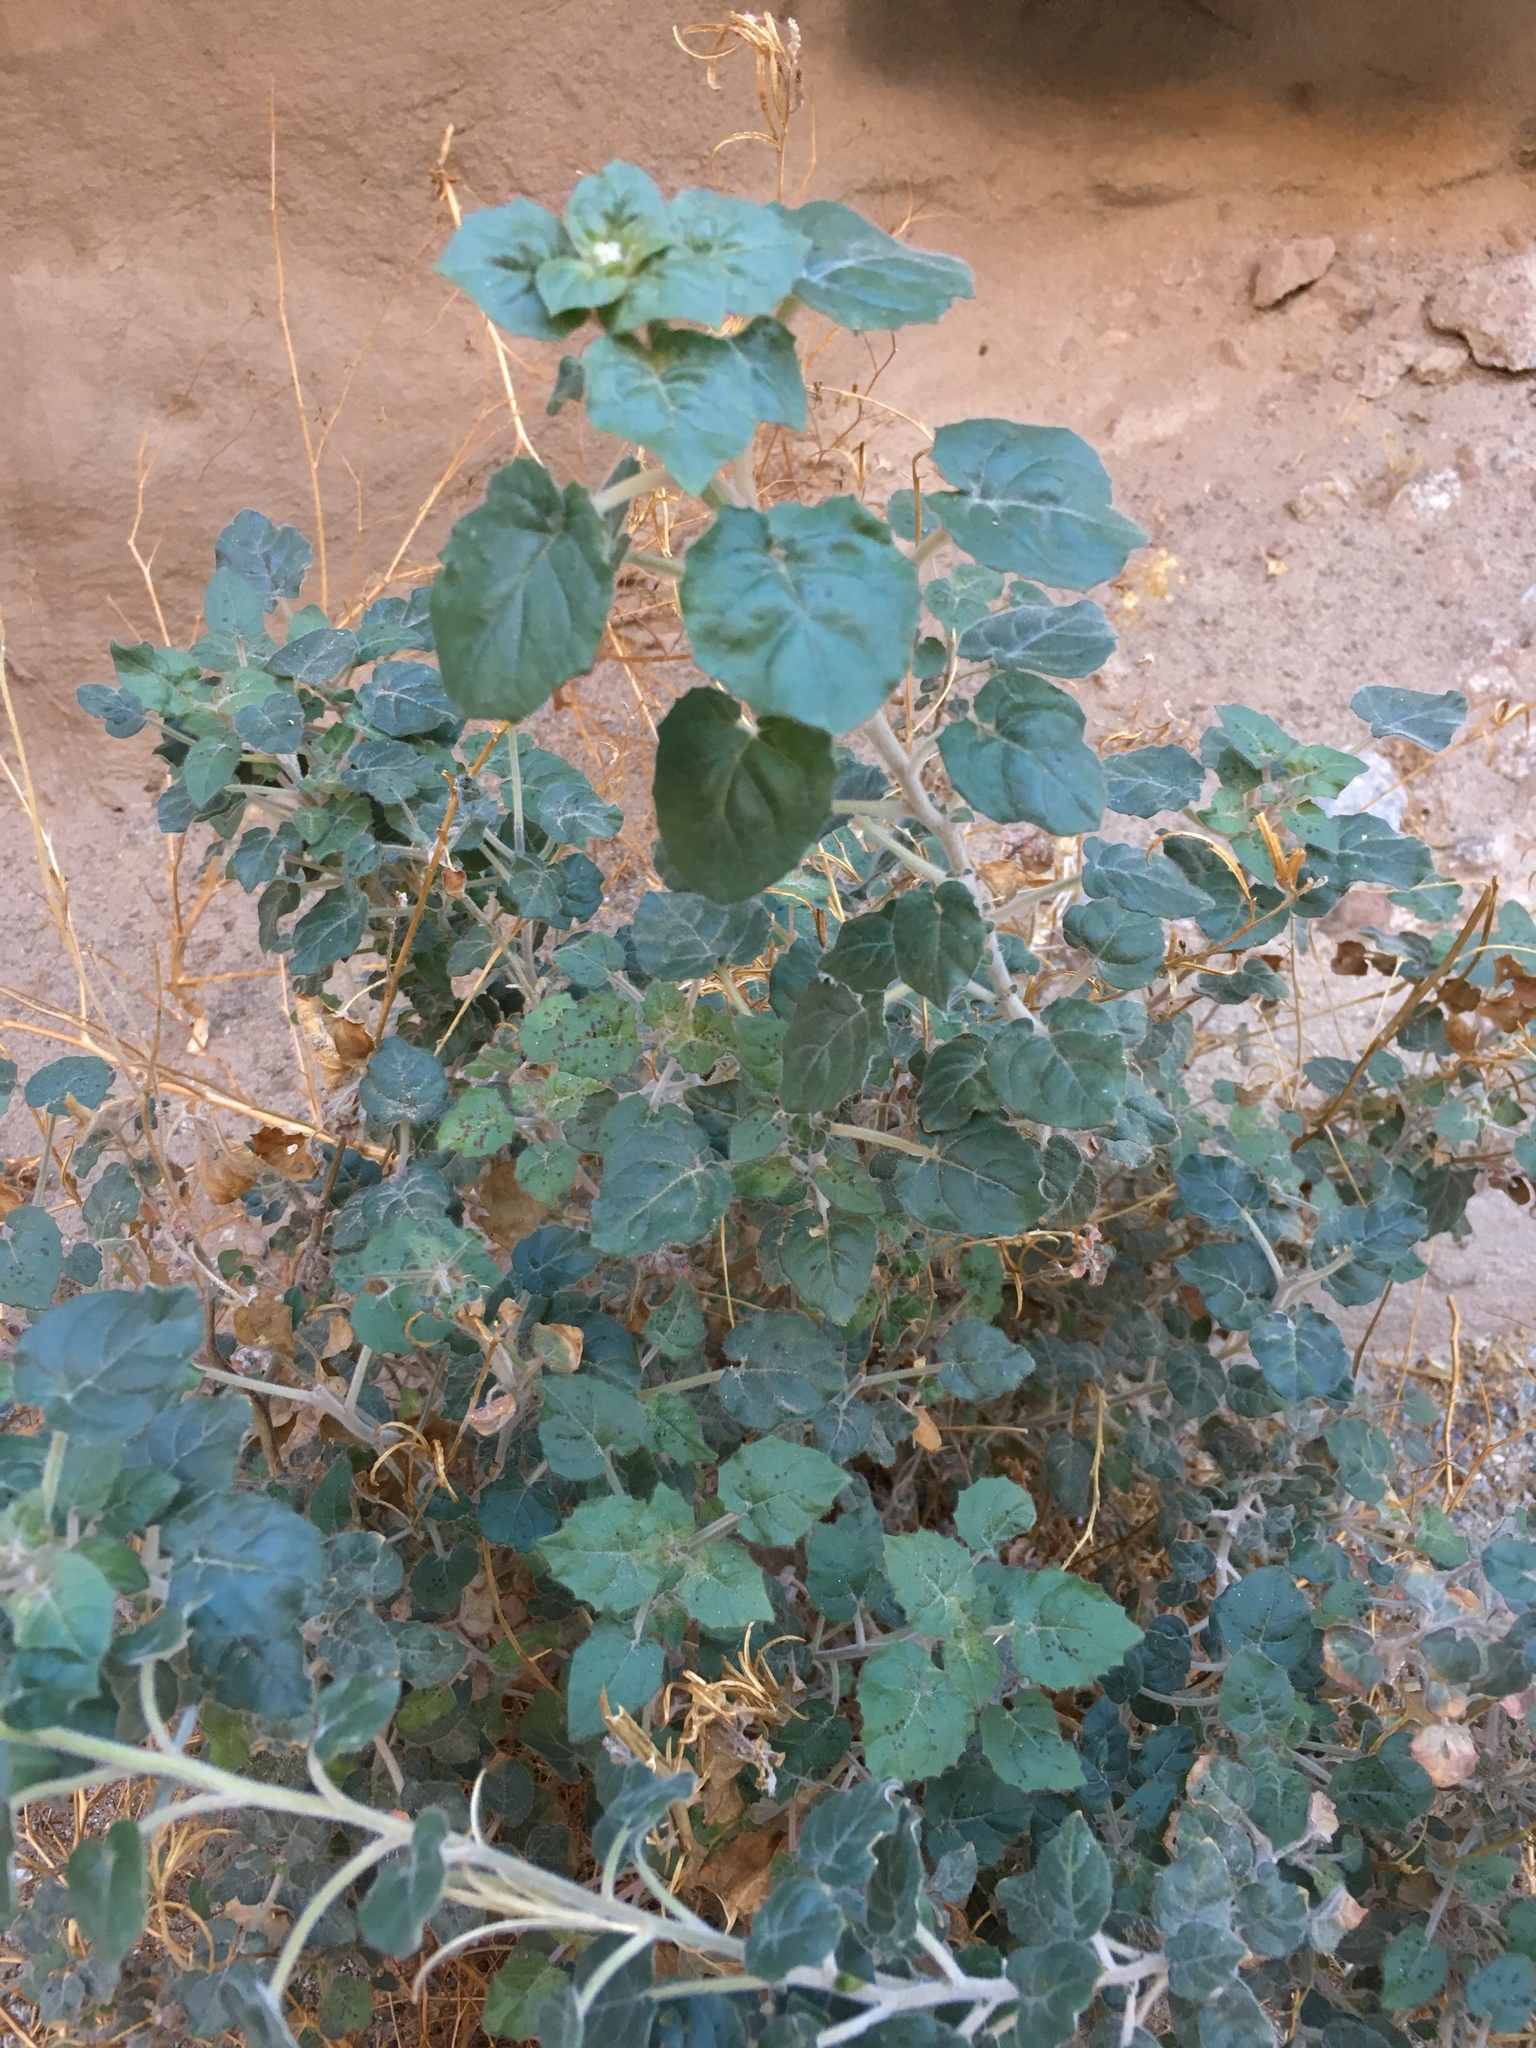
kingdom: Plantae
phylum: Tracheophyta
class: Magnoliopsida
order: Myrtales
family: Onagraceae
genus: Chylismia
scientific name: Chylismia cardiophylla
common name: Heartleaf suncup
